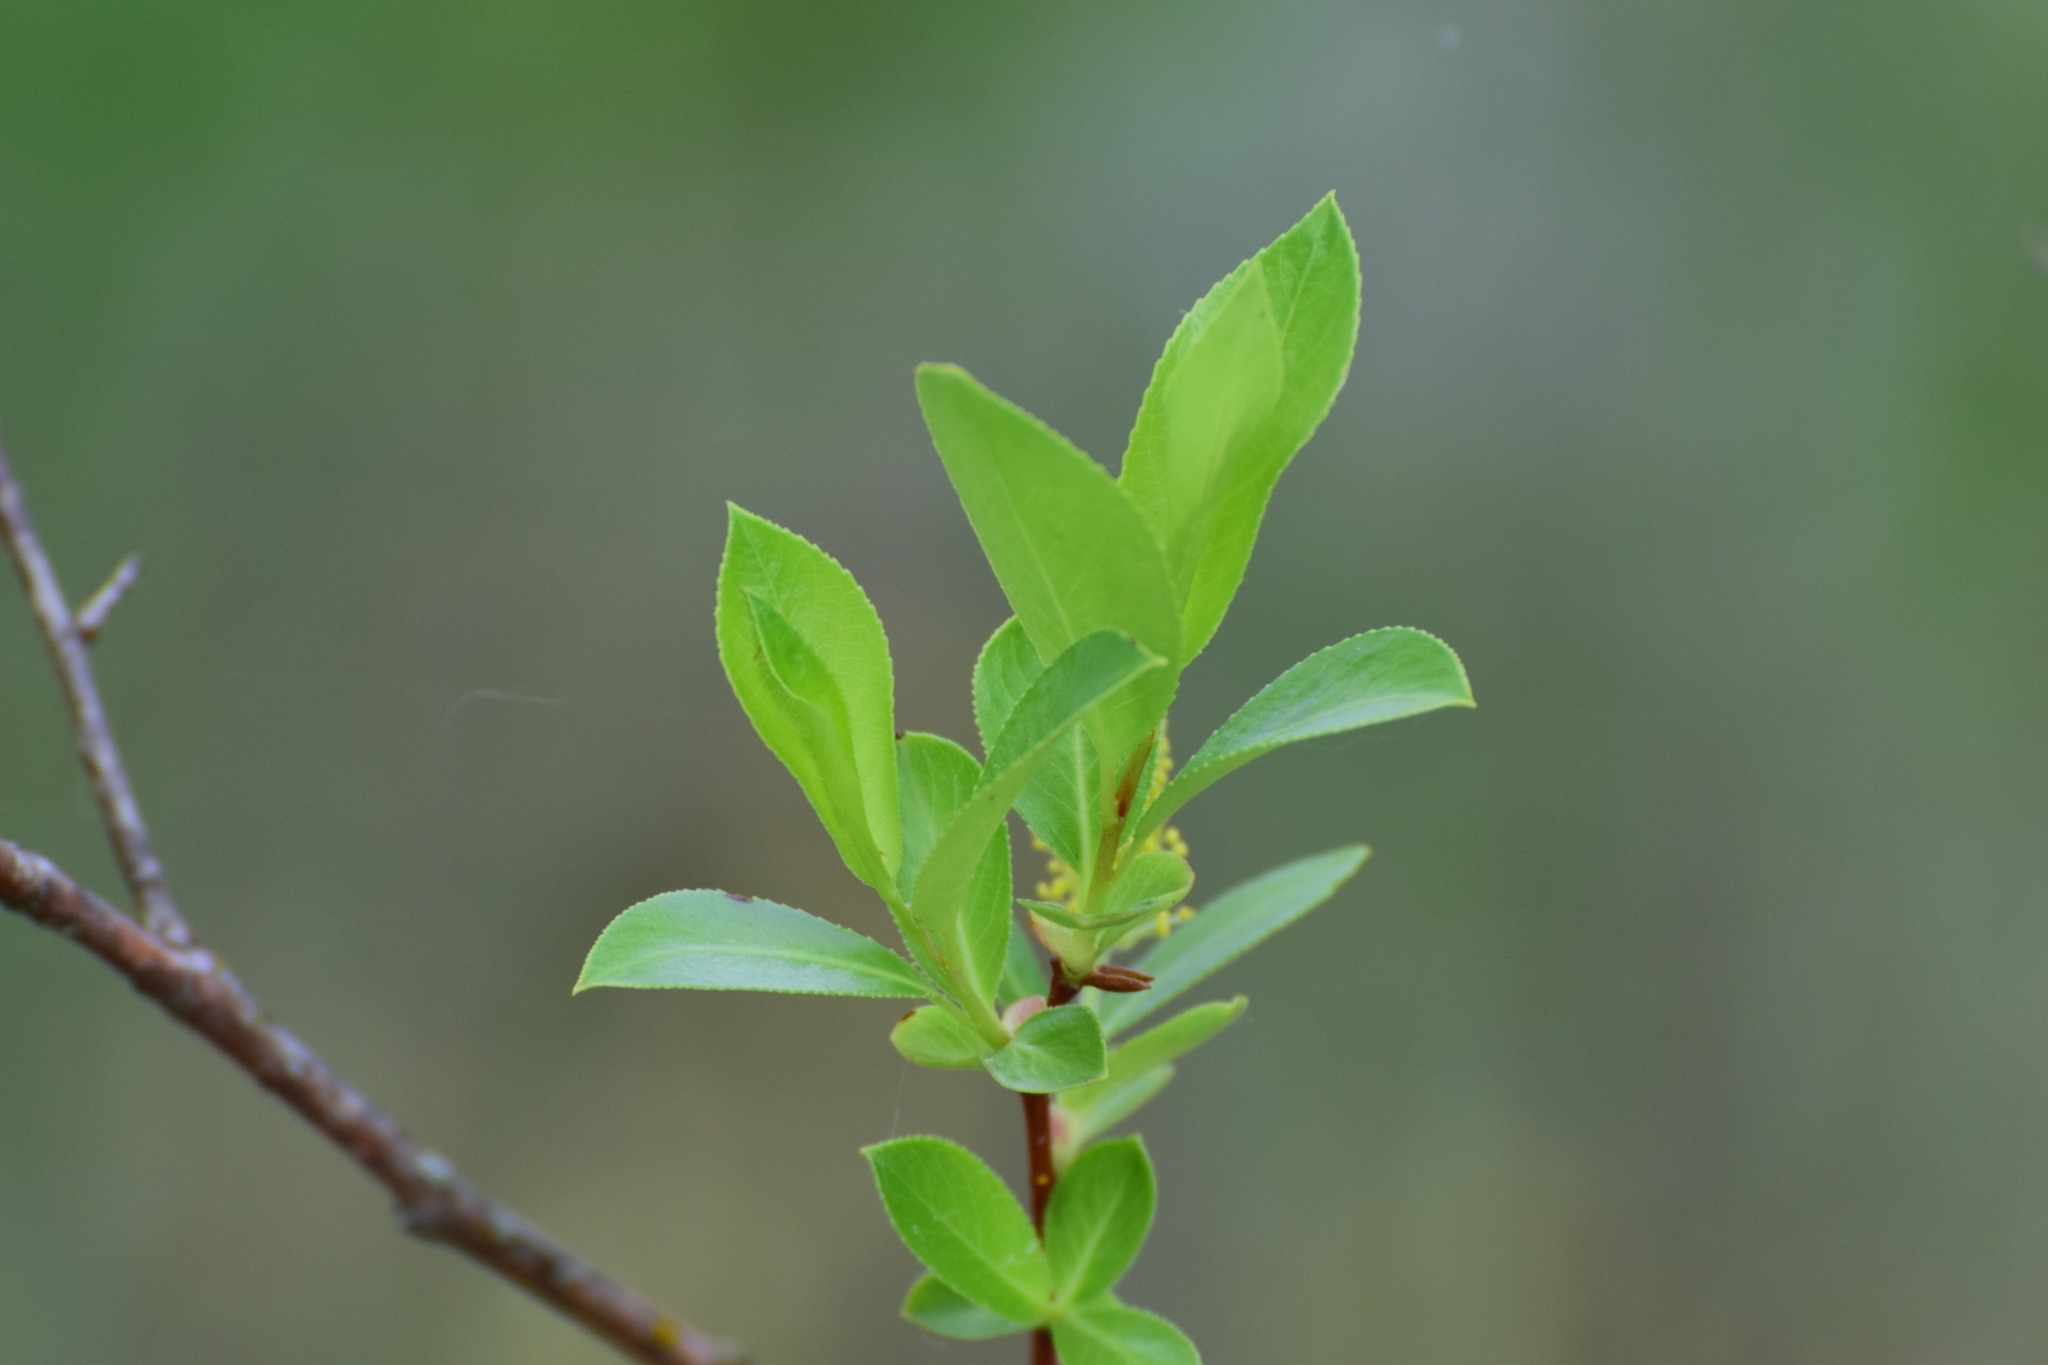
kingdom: Plantae
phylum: Tracheophyta
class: Magnoliopsida
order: Malpighiales
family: Salicaceae
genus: Salix
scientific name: Salix pentandra
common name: Bay willow
